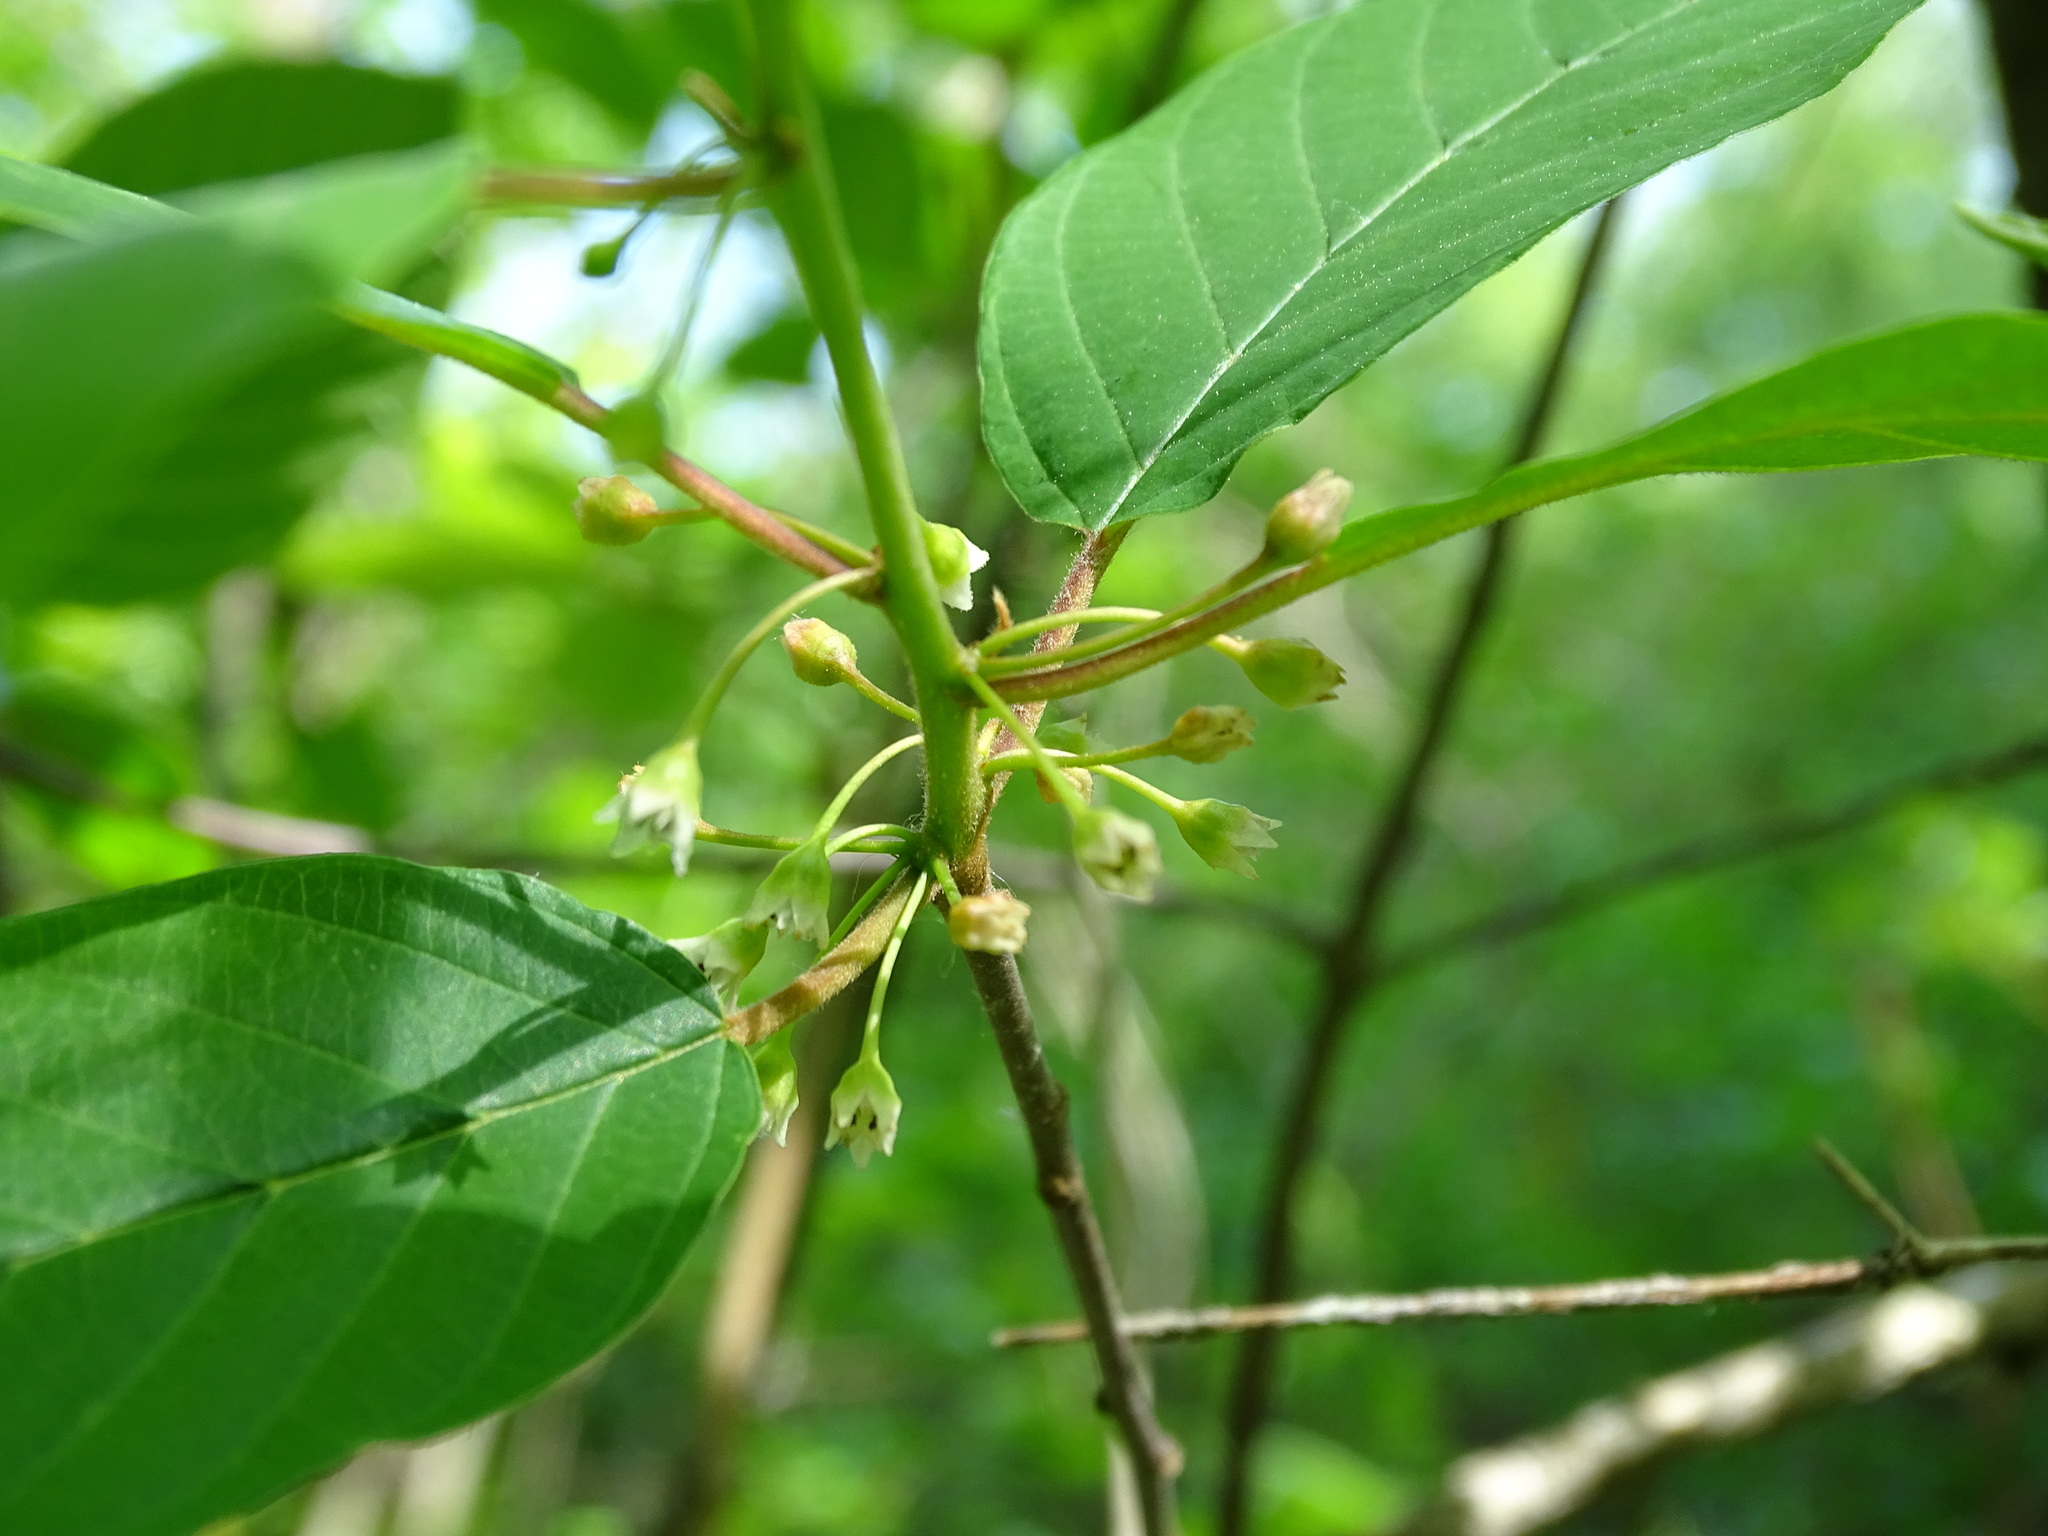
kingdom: Plantae
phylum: Tracheophyta
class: Magnoliopsida
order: Rosales
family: Rhamnaceae
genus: Frangula
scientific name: Frangula alnus
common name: Alder buckthorn
